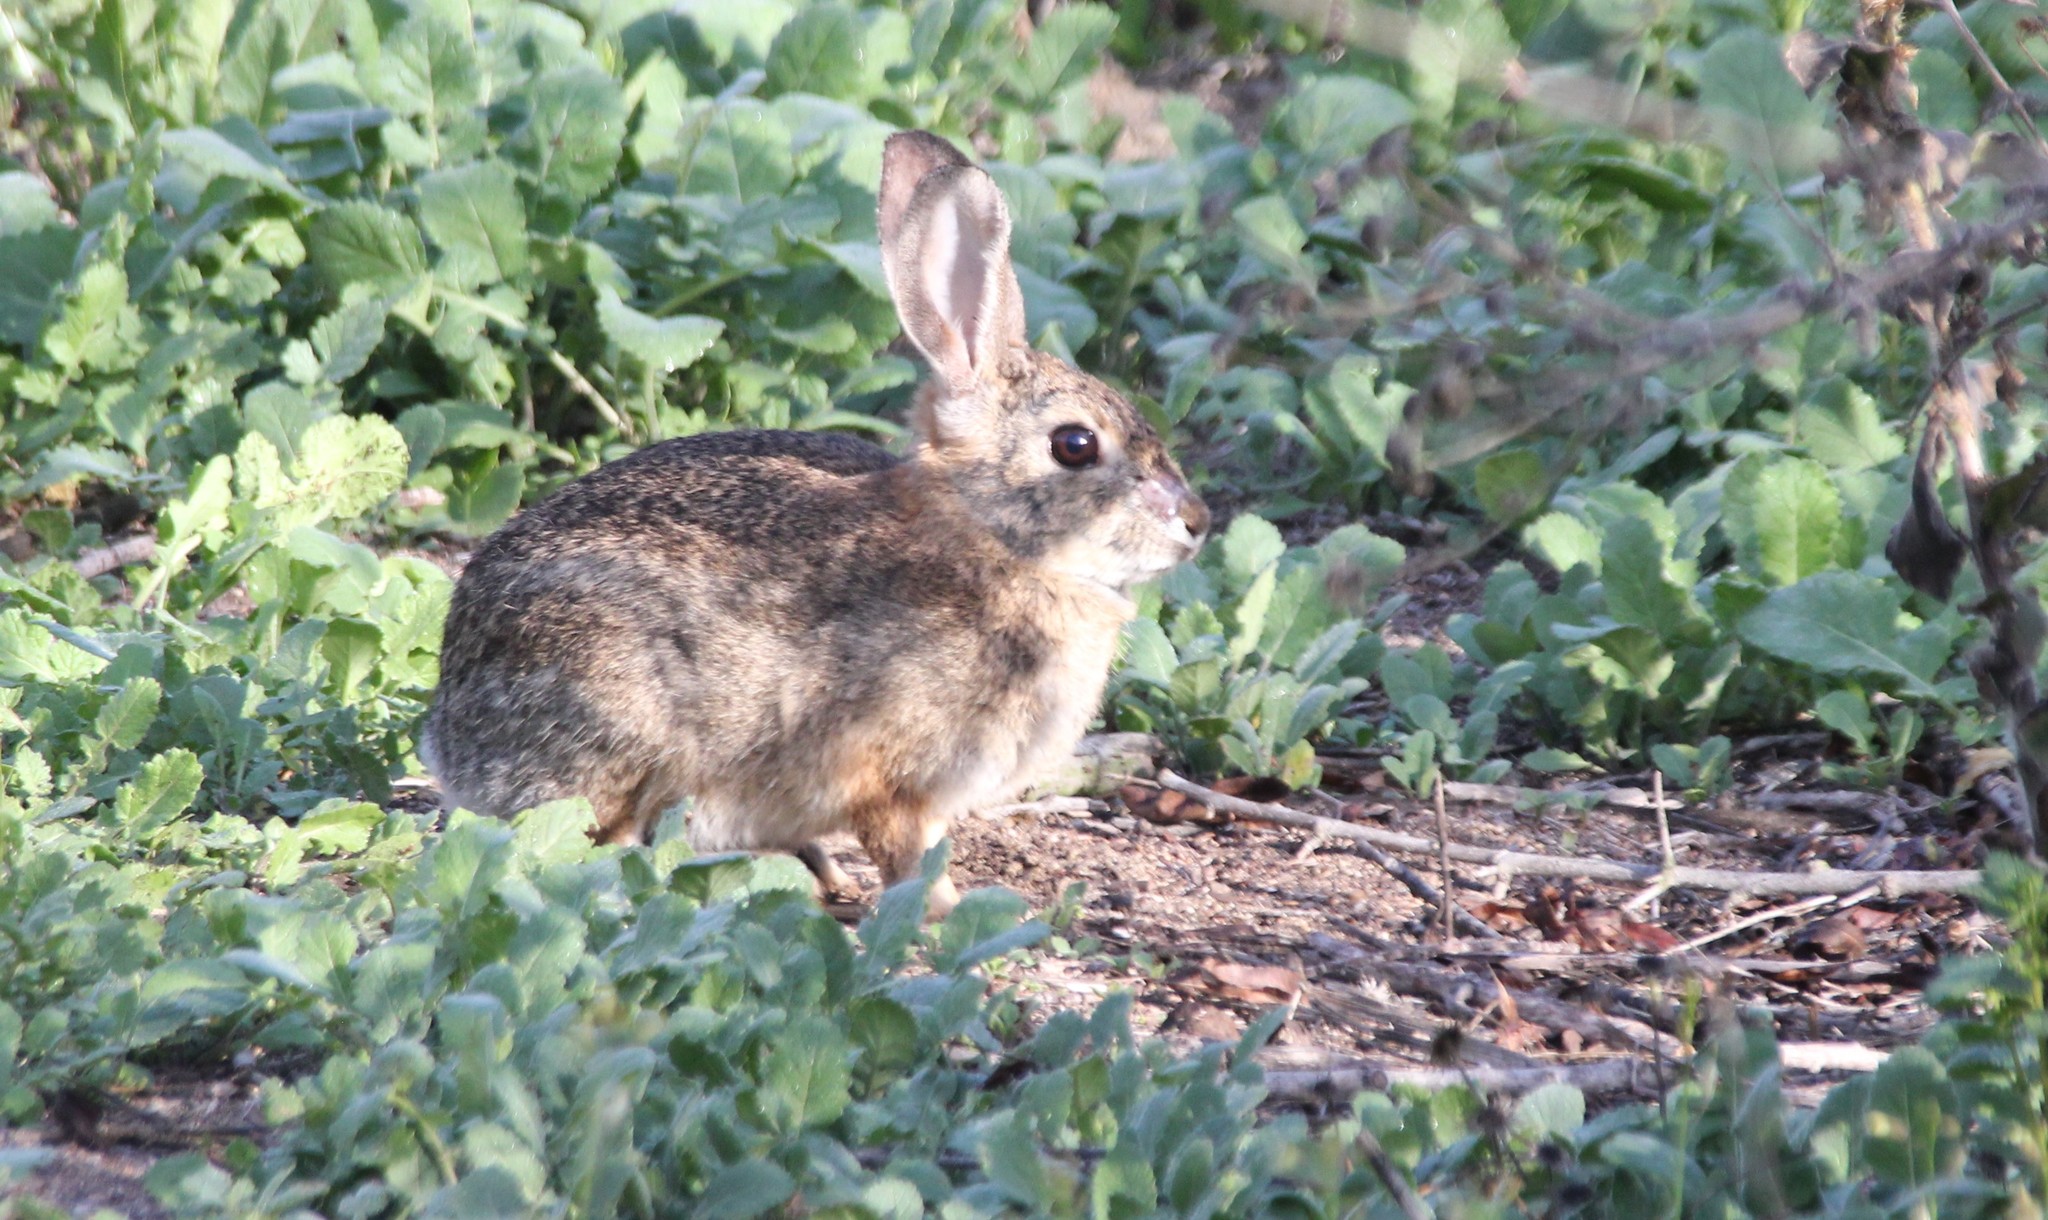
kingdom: Animalia
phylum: Chordata
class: Mammalia
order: Lagomorpha
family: Leporidae
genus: Sylvilagus
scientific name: Sylvilagus audubonii
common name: Desert cottontail
